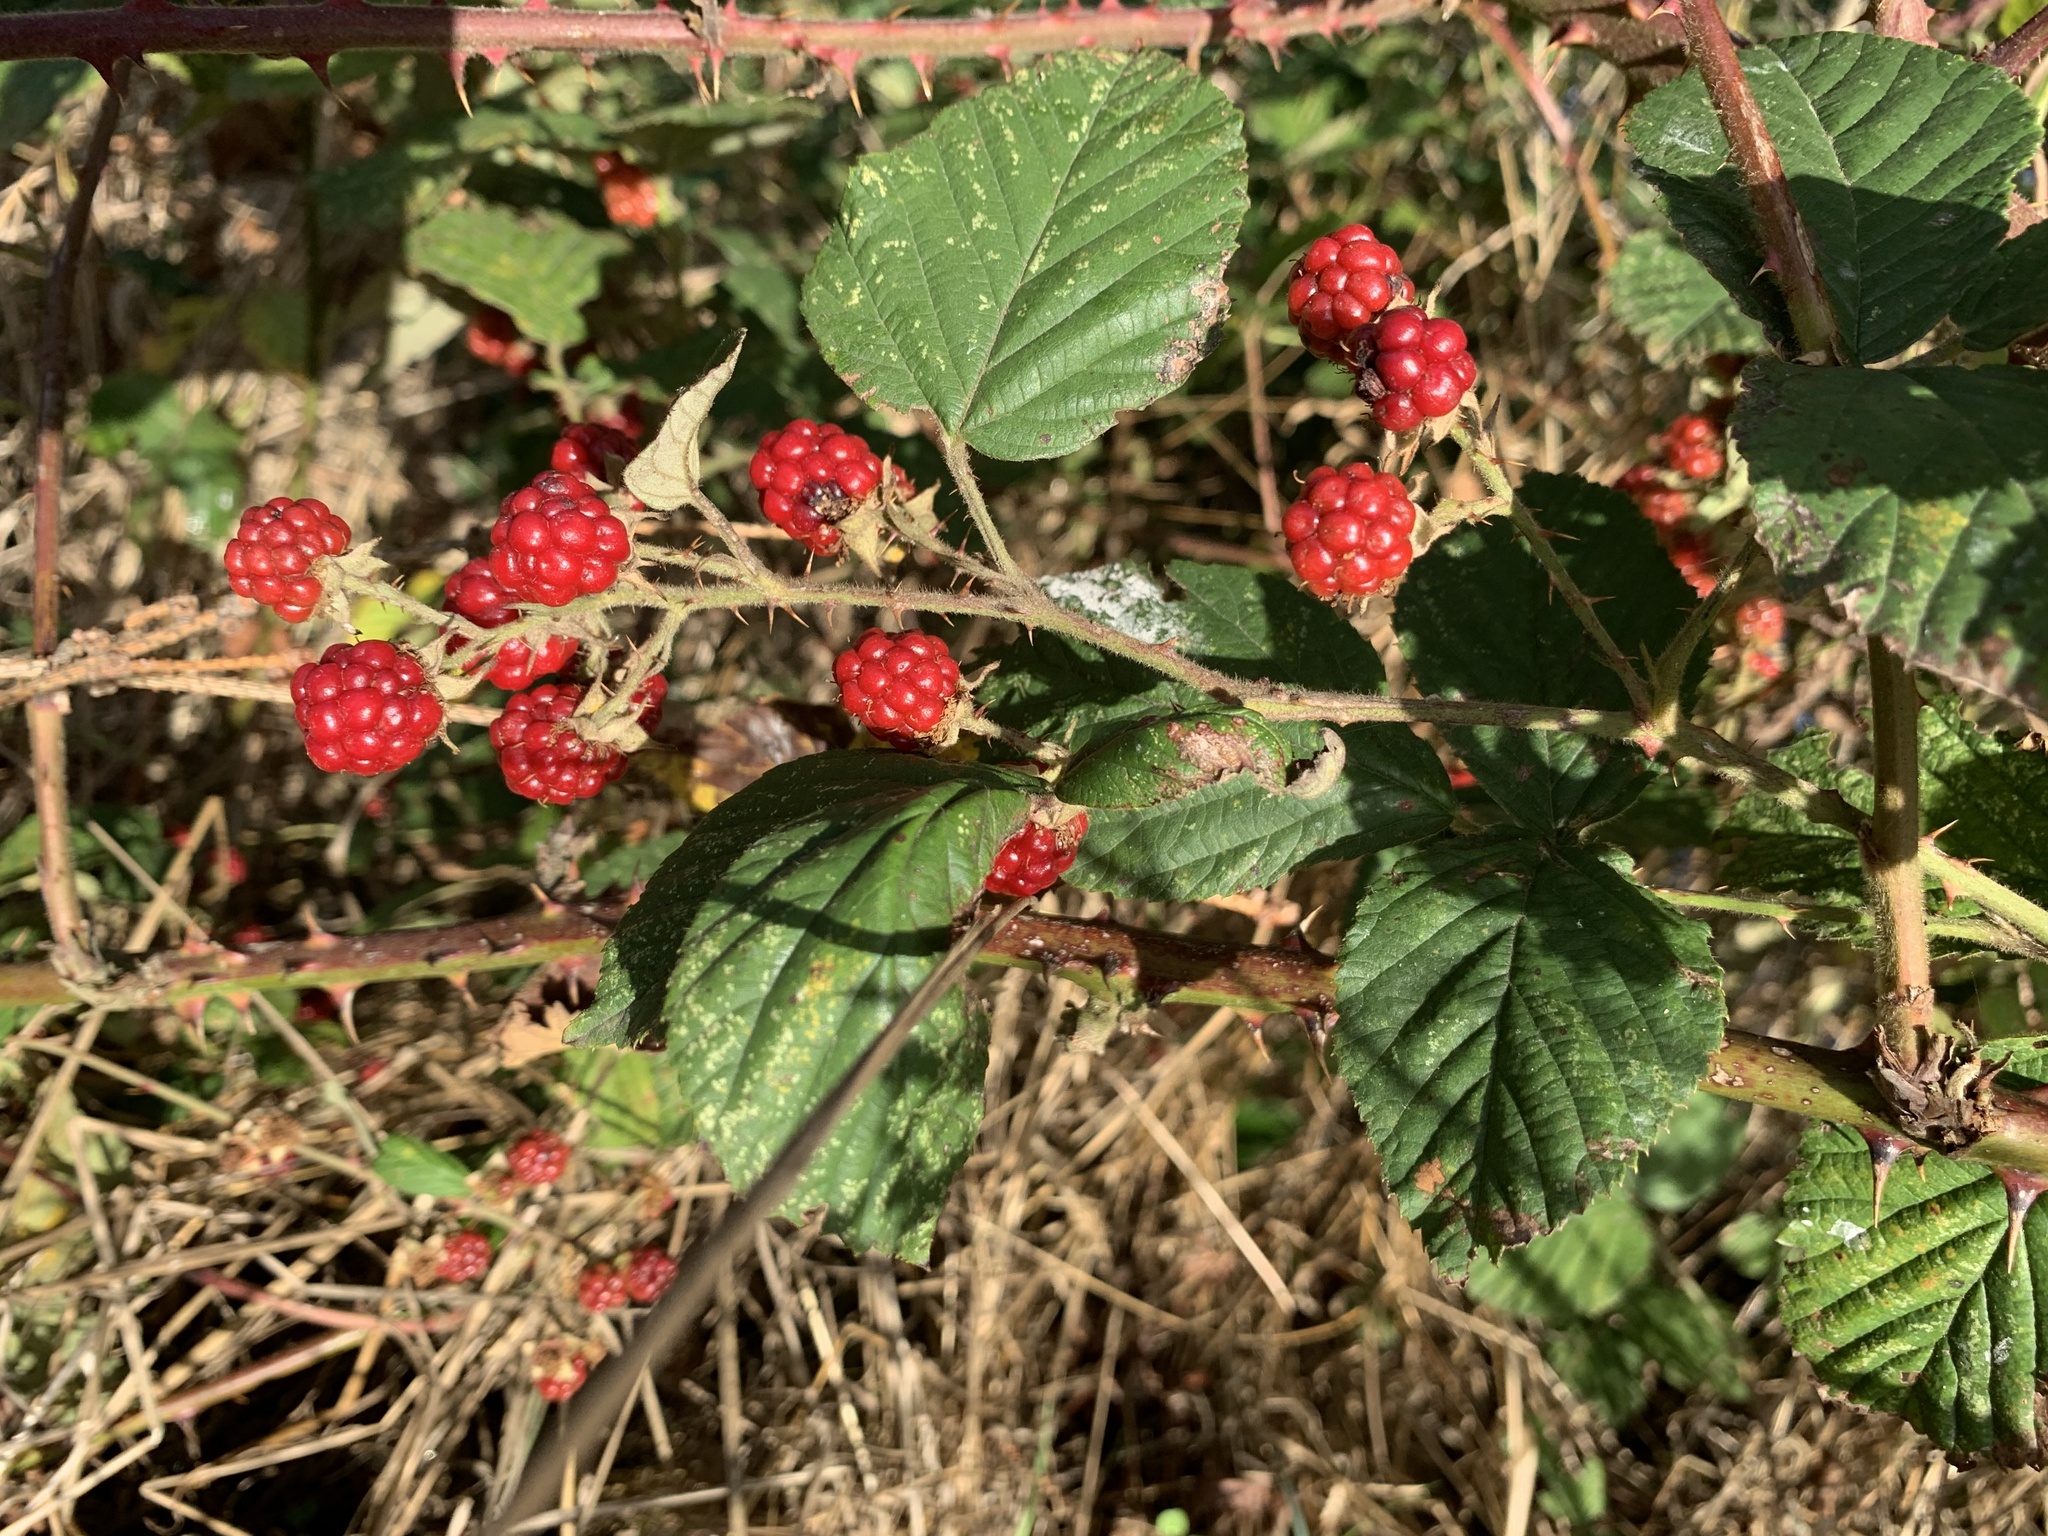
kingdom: Plantae
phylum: Tracheophyta
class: Magnoliopsida
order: Rosales
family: Rosaceae
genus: Rubus
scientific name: Rubus armeniacus
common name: Himalayan blackberry
